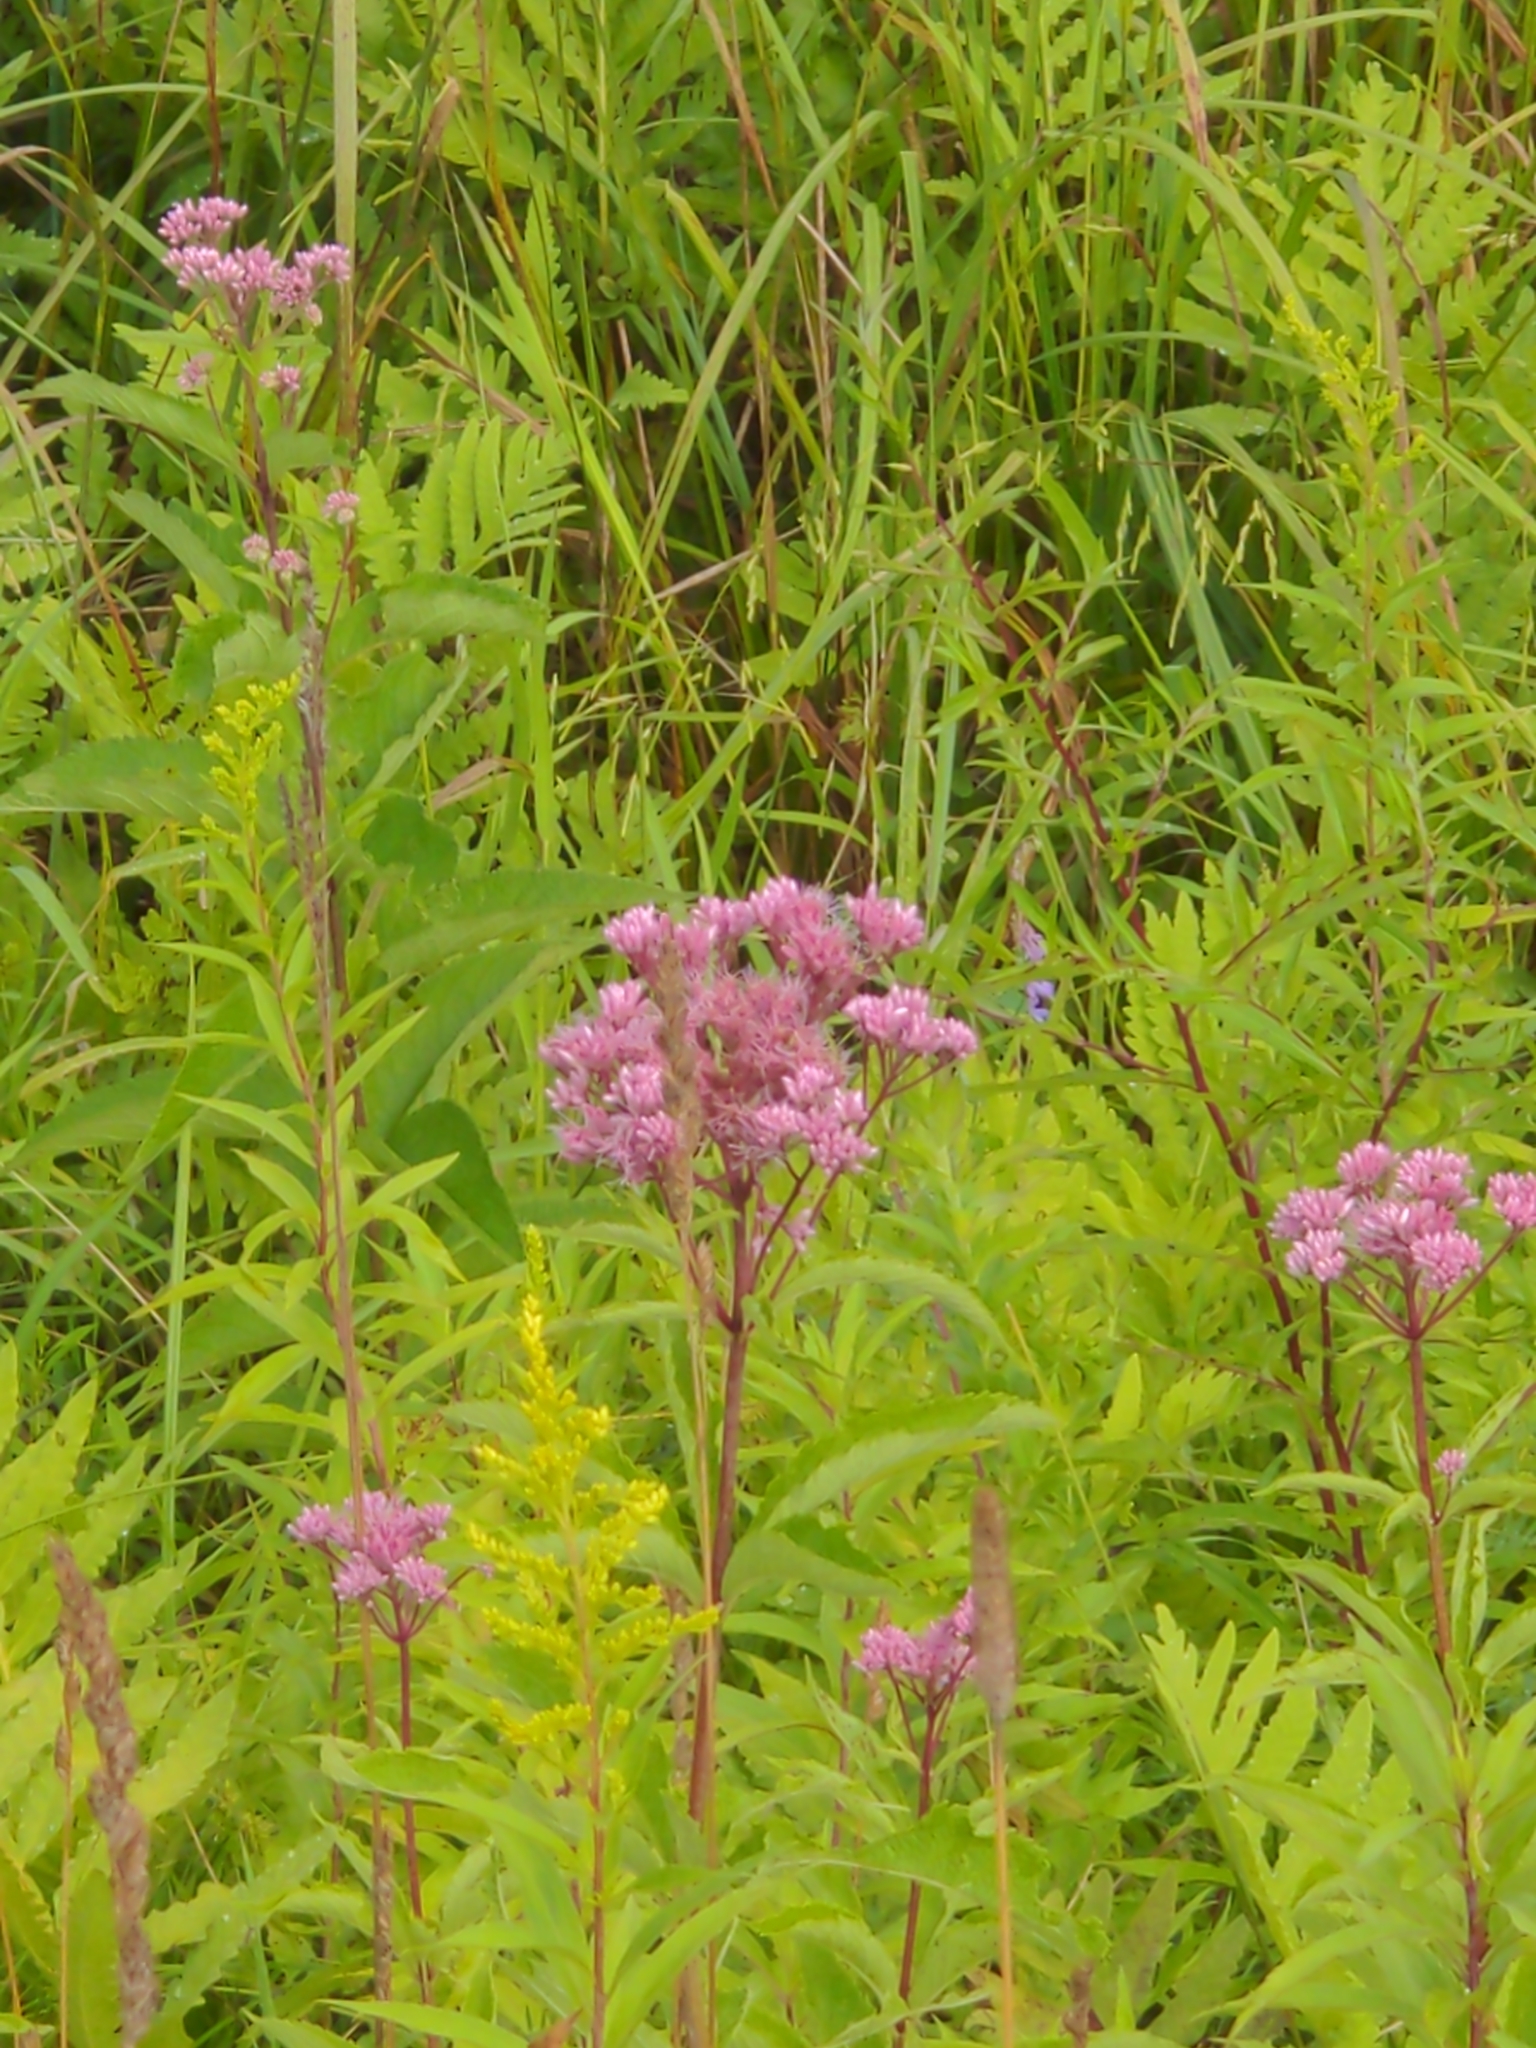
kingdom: Plantae
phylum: Tracheophyta
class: Magnoliopsida
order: Asterales
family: Asteraceae
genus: Eutrochium
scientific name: Eutrochium maculatum
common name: Spotted joe pye weed
